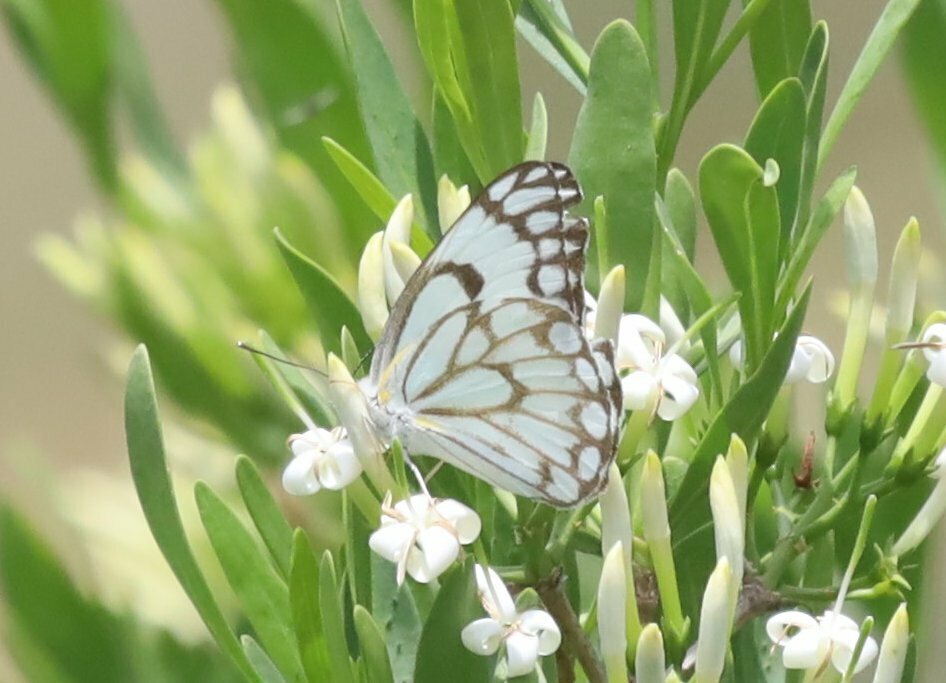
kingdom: Animalia
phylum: Arthropoda
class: Insecta
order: Lepidoptera
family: Pieridae
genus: Belenois
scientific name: Belenois aurota
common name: Brown-veined white
